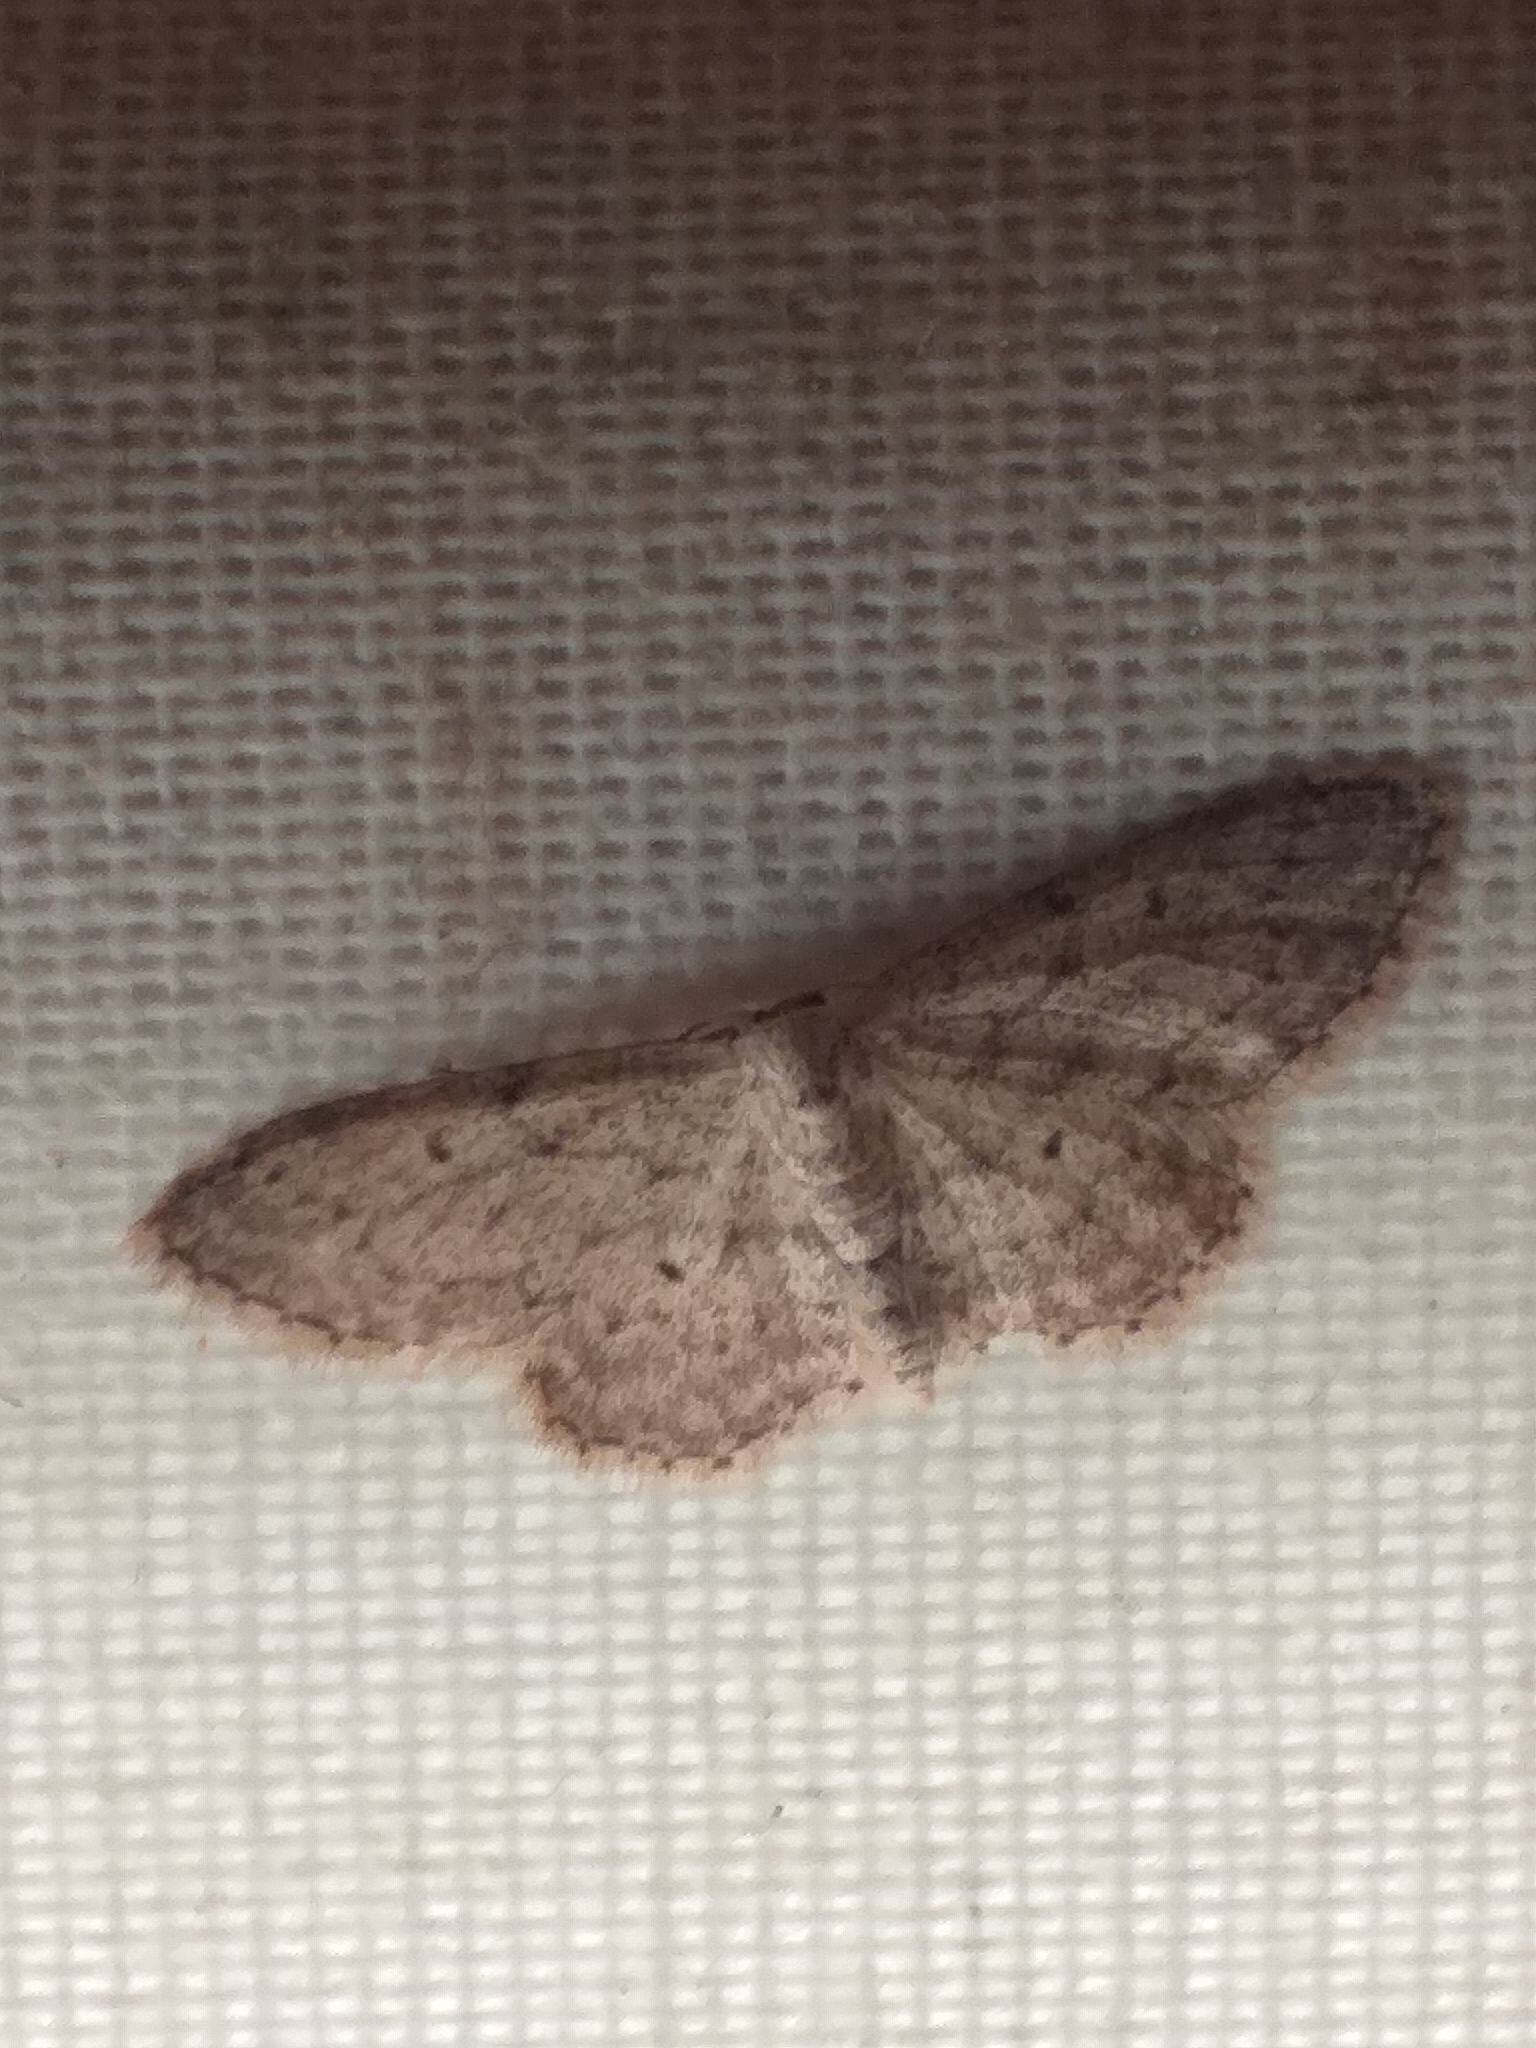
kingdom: Animalia
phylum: Arthropoda
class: Insecta
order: Lepidoptera
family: Geometridae
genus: Idaea
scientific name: Idaea seriata
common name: Small dusty wave
